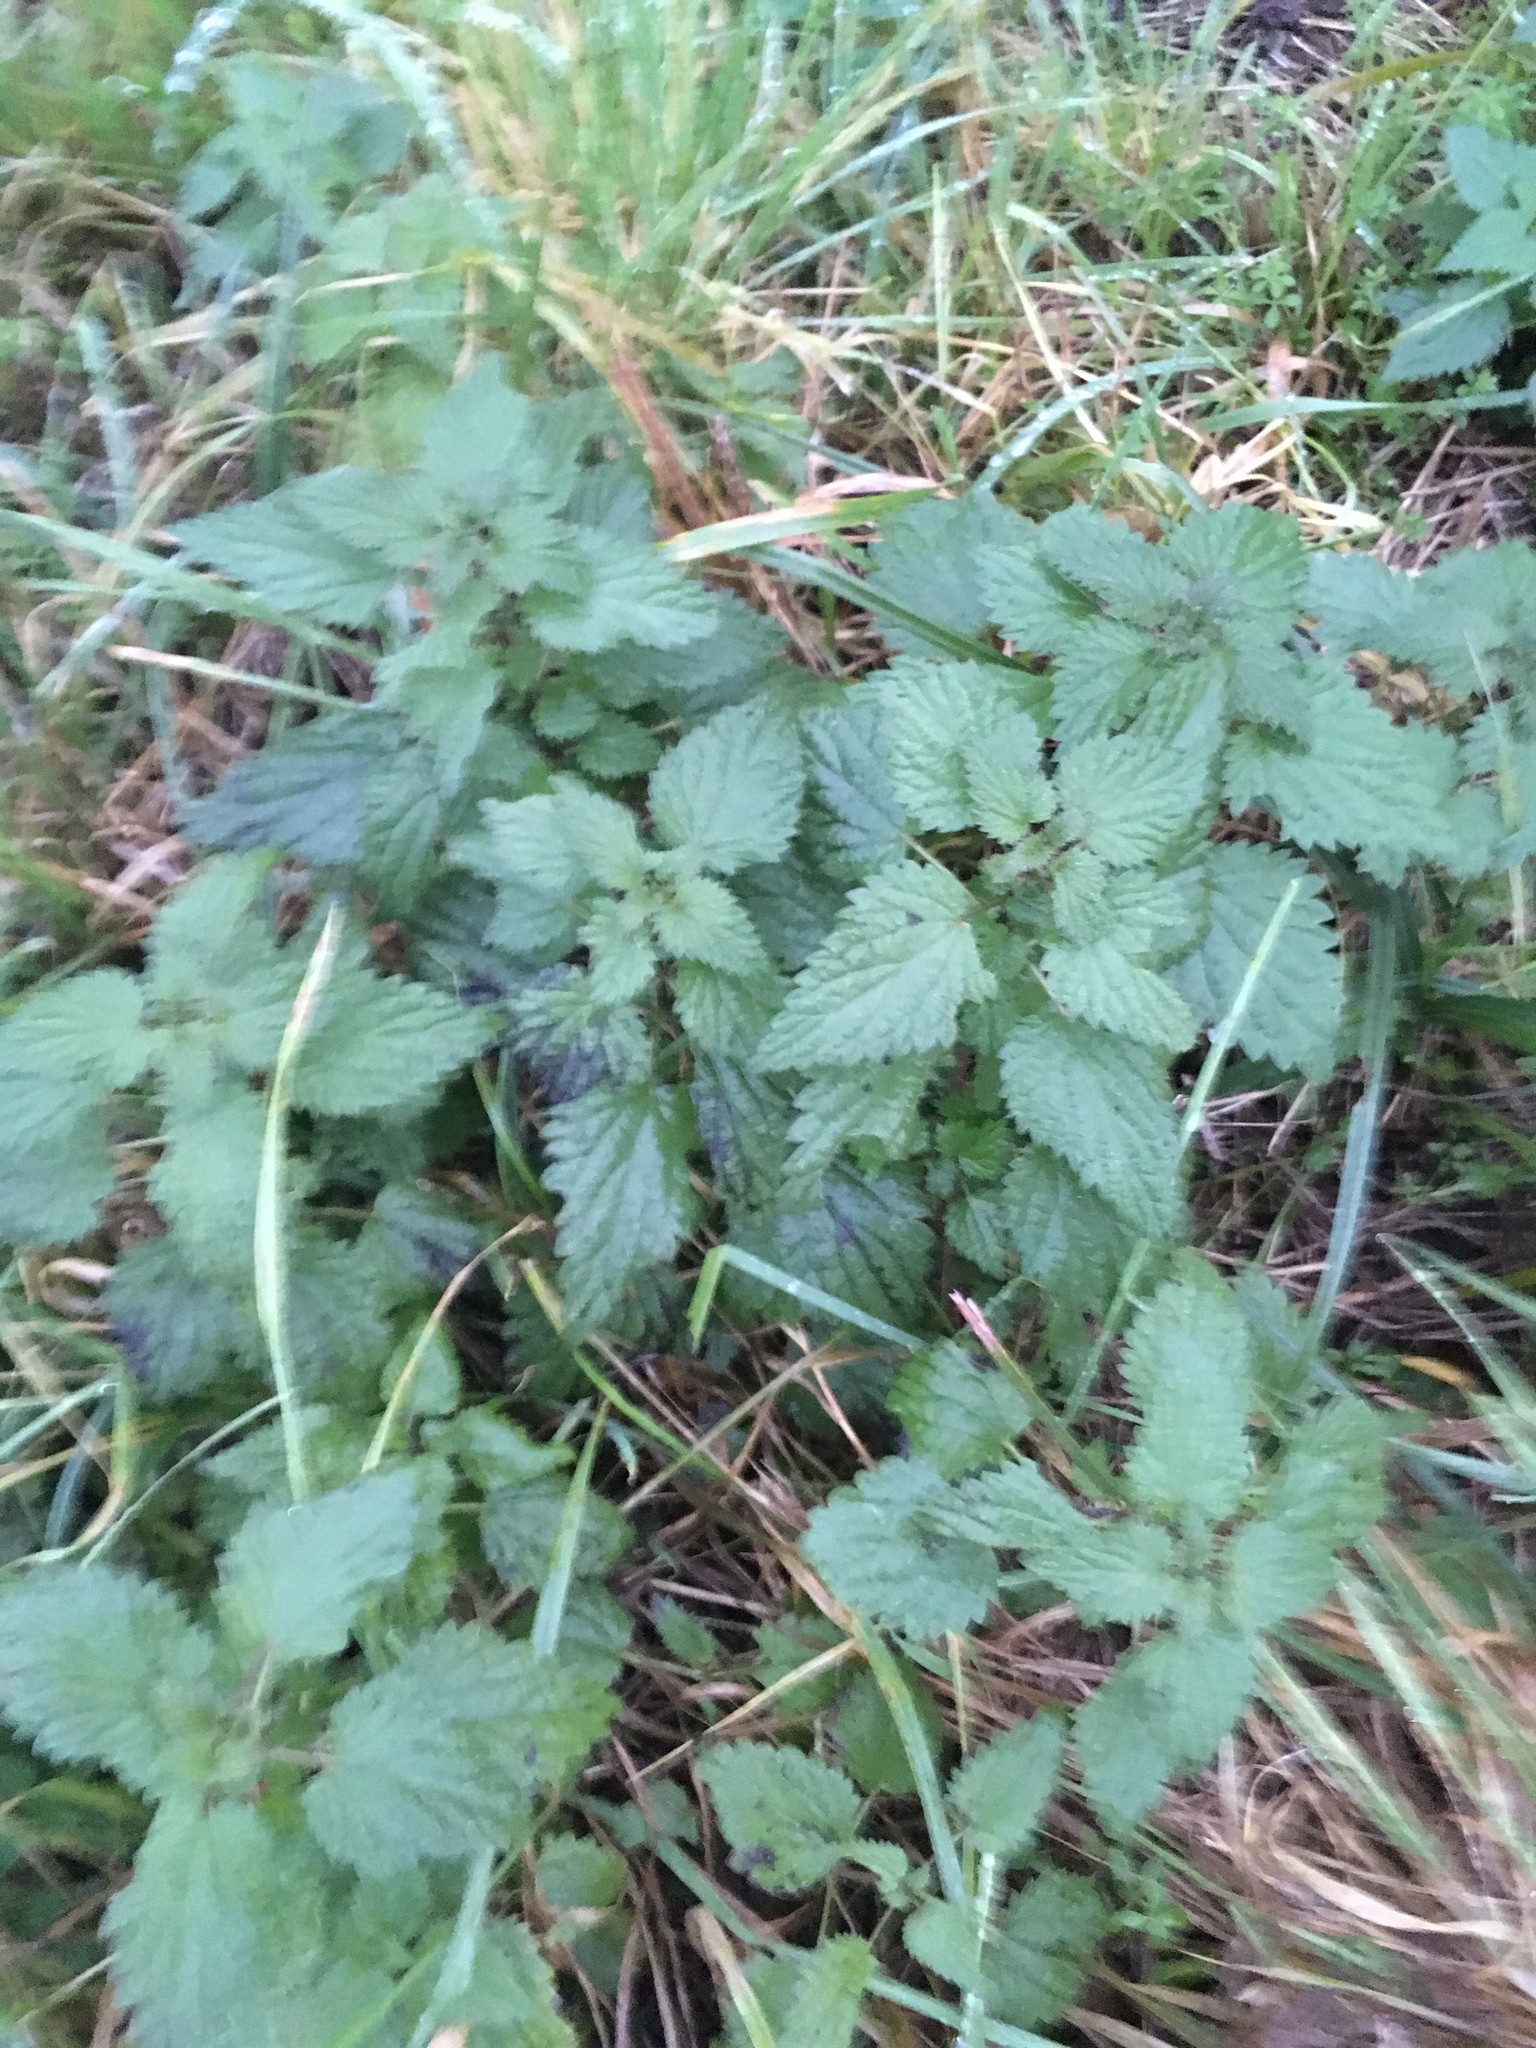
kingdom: Plantae
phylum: Tracheophyta
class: Magnoliopsida
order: Rosales
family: Urticaceae
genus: Urtica
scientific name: Urtica dioica
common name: Common nettle
